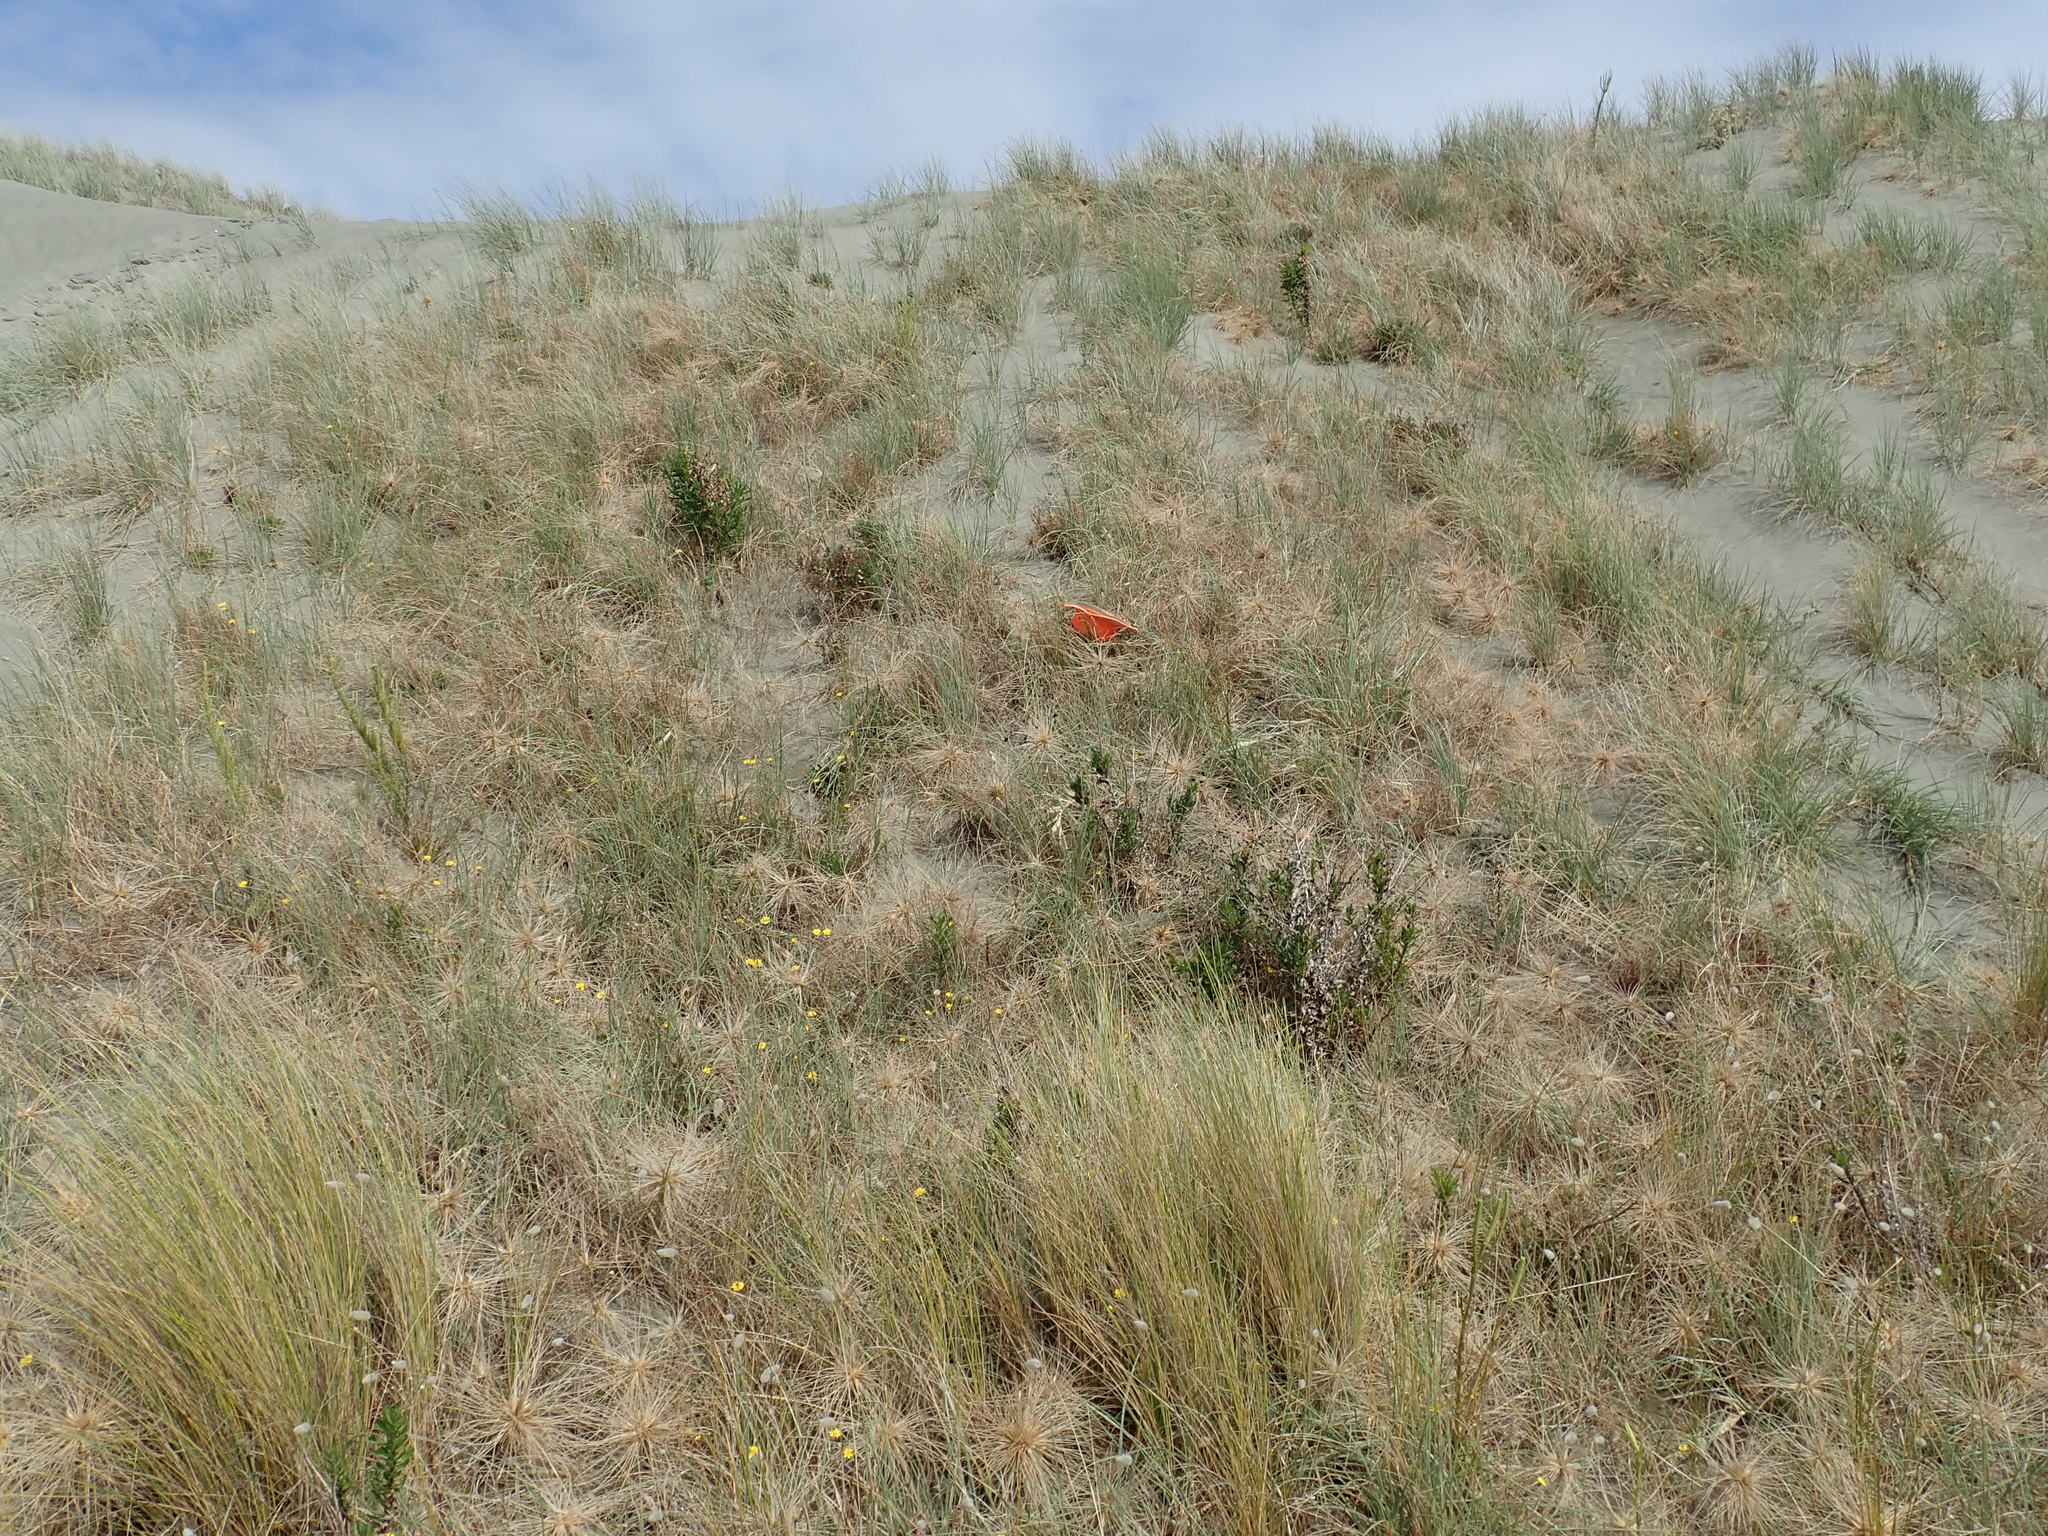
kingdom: Animalia
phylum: Arthropoda
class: Arachnida
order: Araneae
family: Theridiidae
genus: Latrodectus
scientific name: Latrodectus katipo
